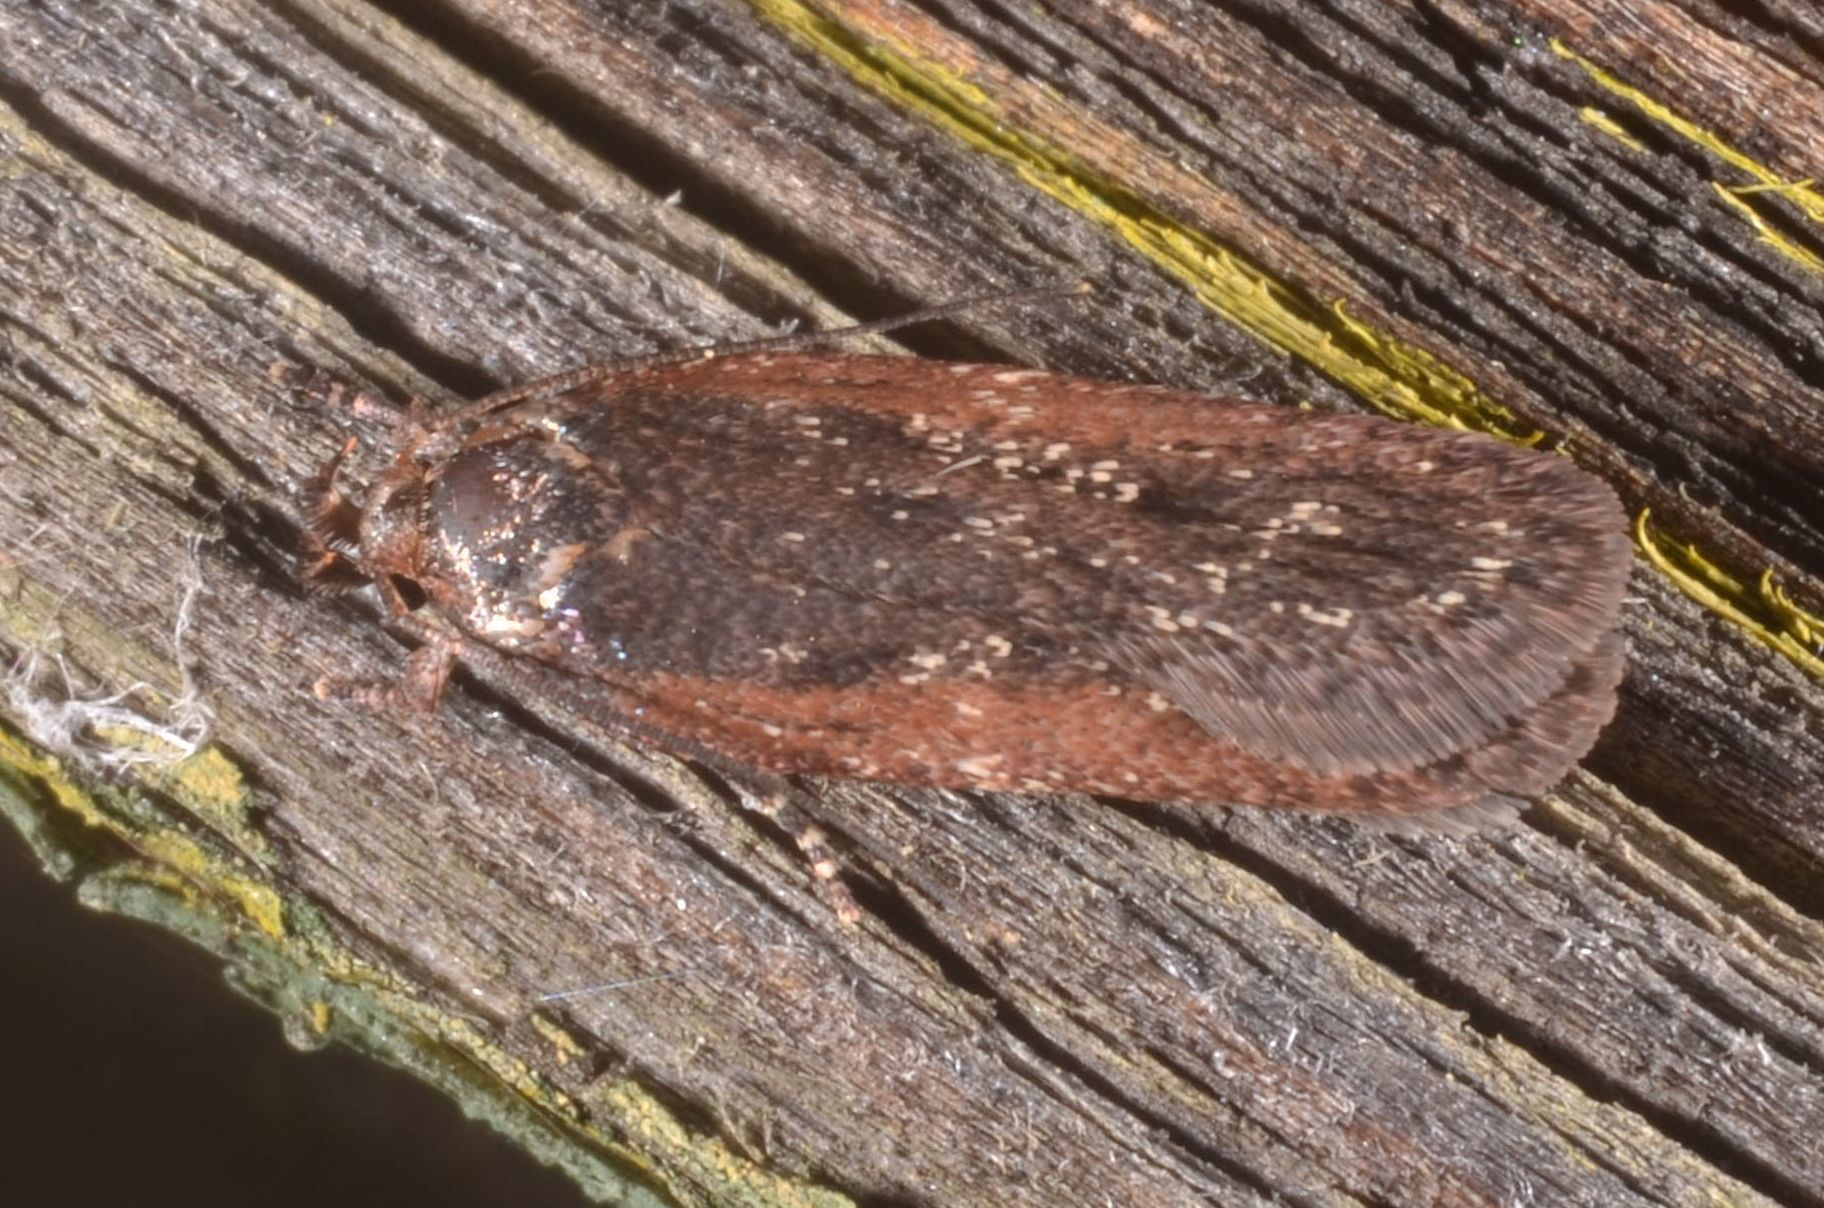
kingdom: Animalia
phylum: Arthropoda
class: Insecta
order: Lepidoptera
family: Depressariidae
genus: Depressaria
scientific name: Depressaria pimpinellae
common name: Pimpinel flat-body
